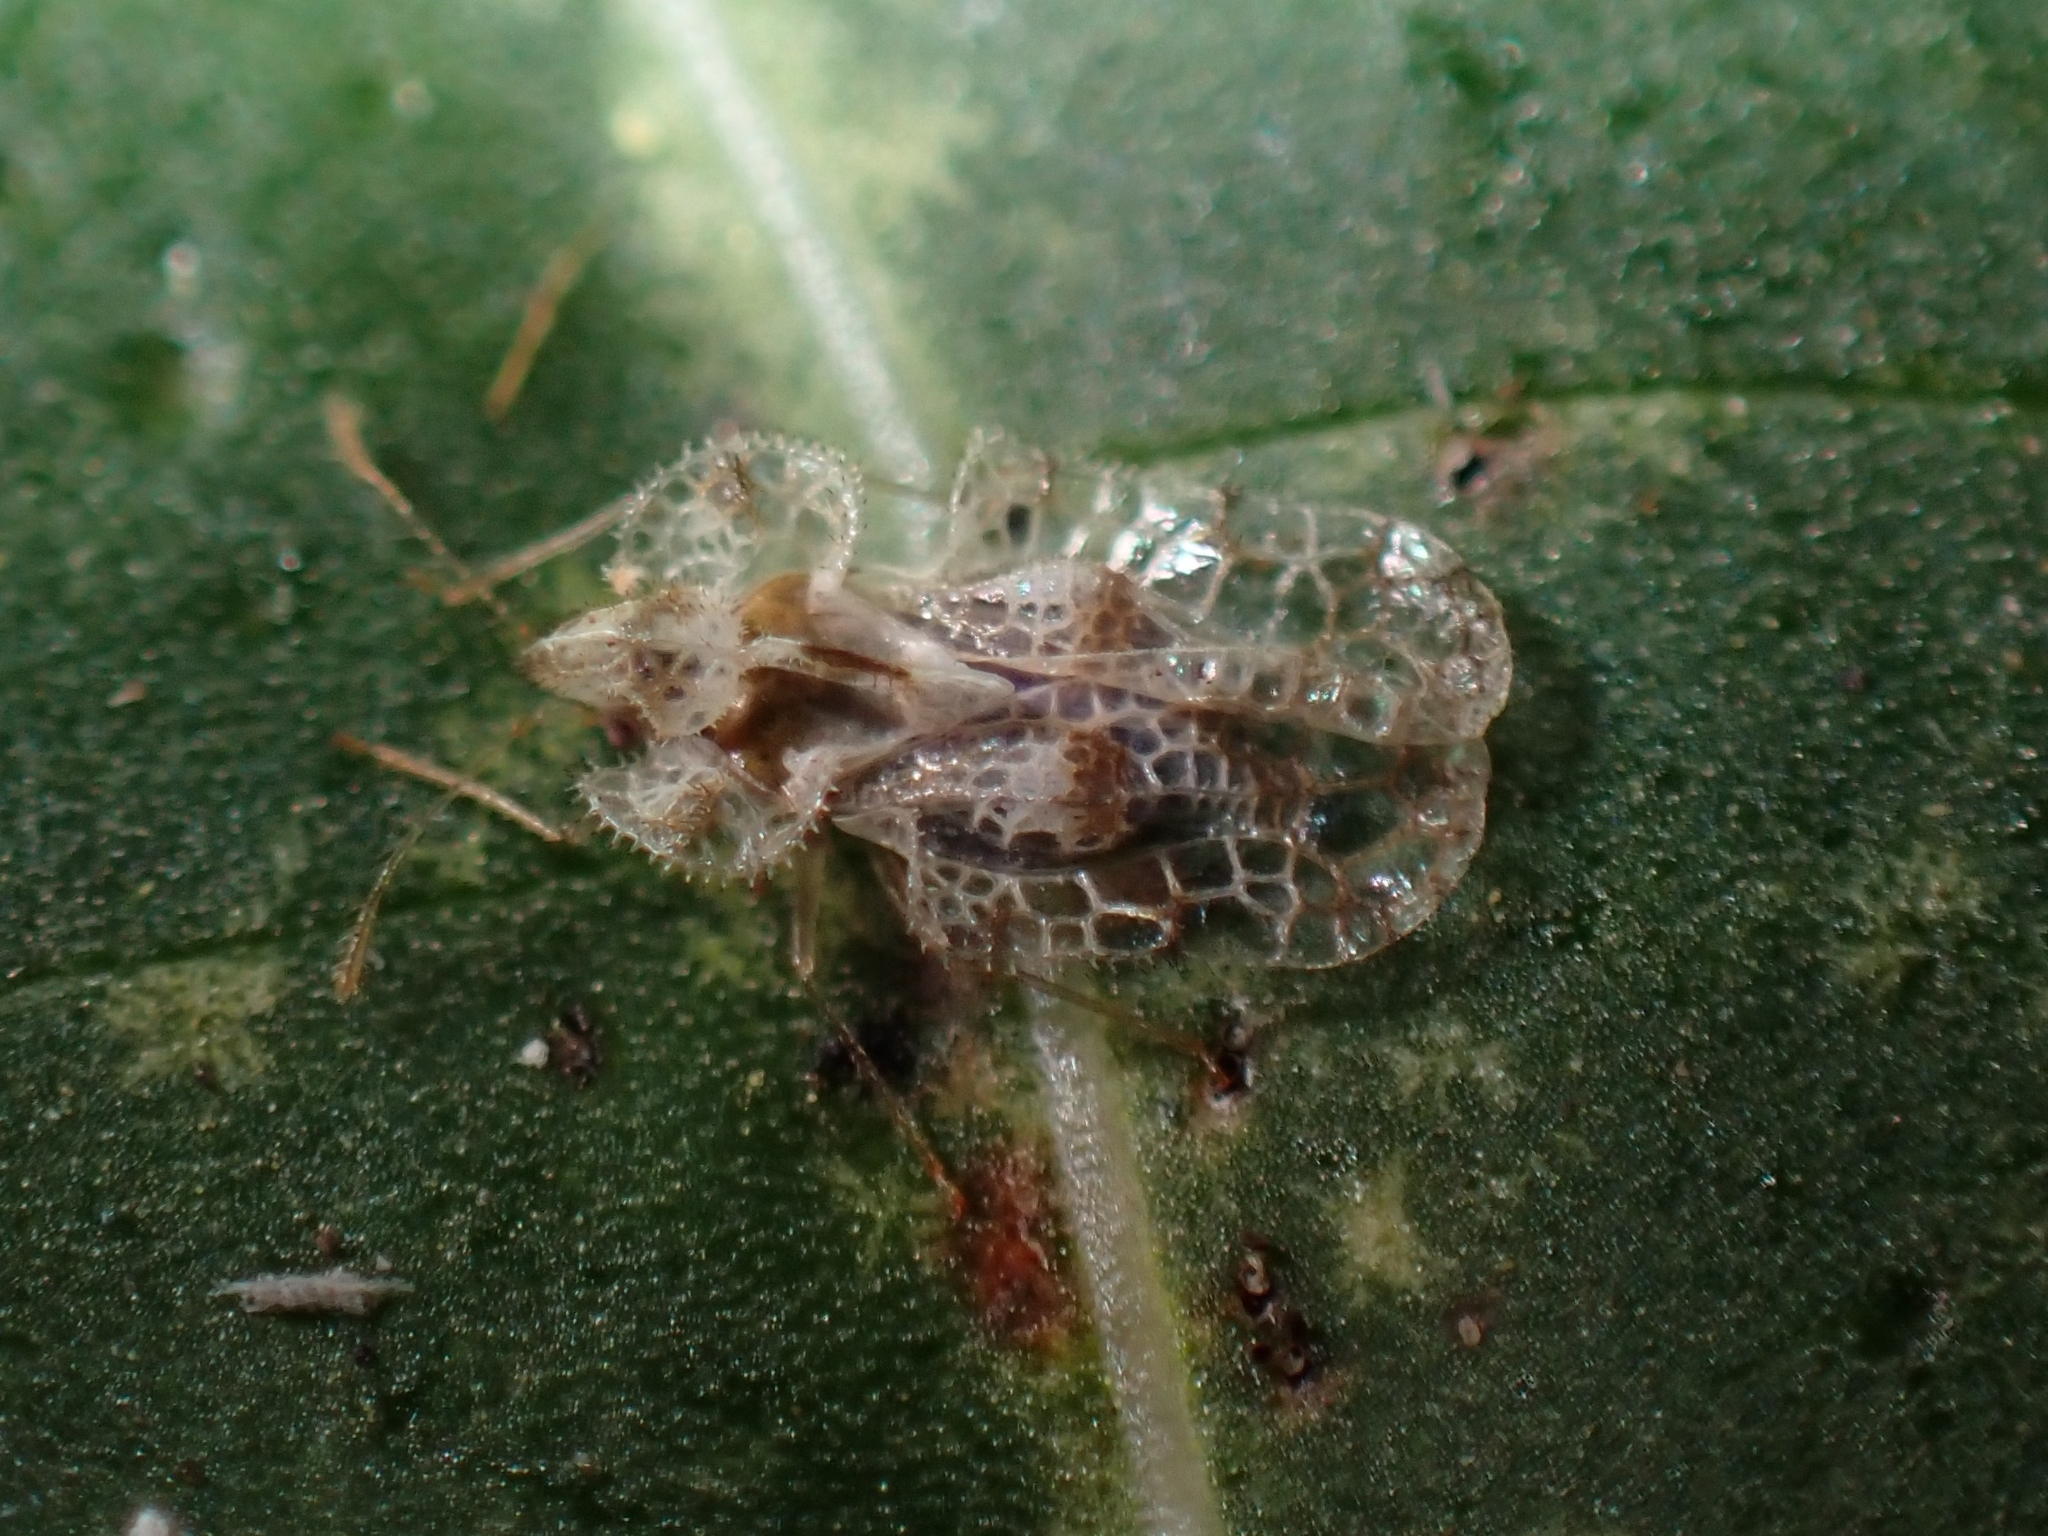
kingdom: Animalia
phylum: Arthropoda
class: Insecta
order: Hemiptera
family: Tingidae
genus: Corythucha
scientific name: Corythucha gossypii
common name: Cotton lace bug
